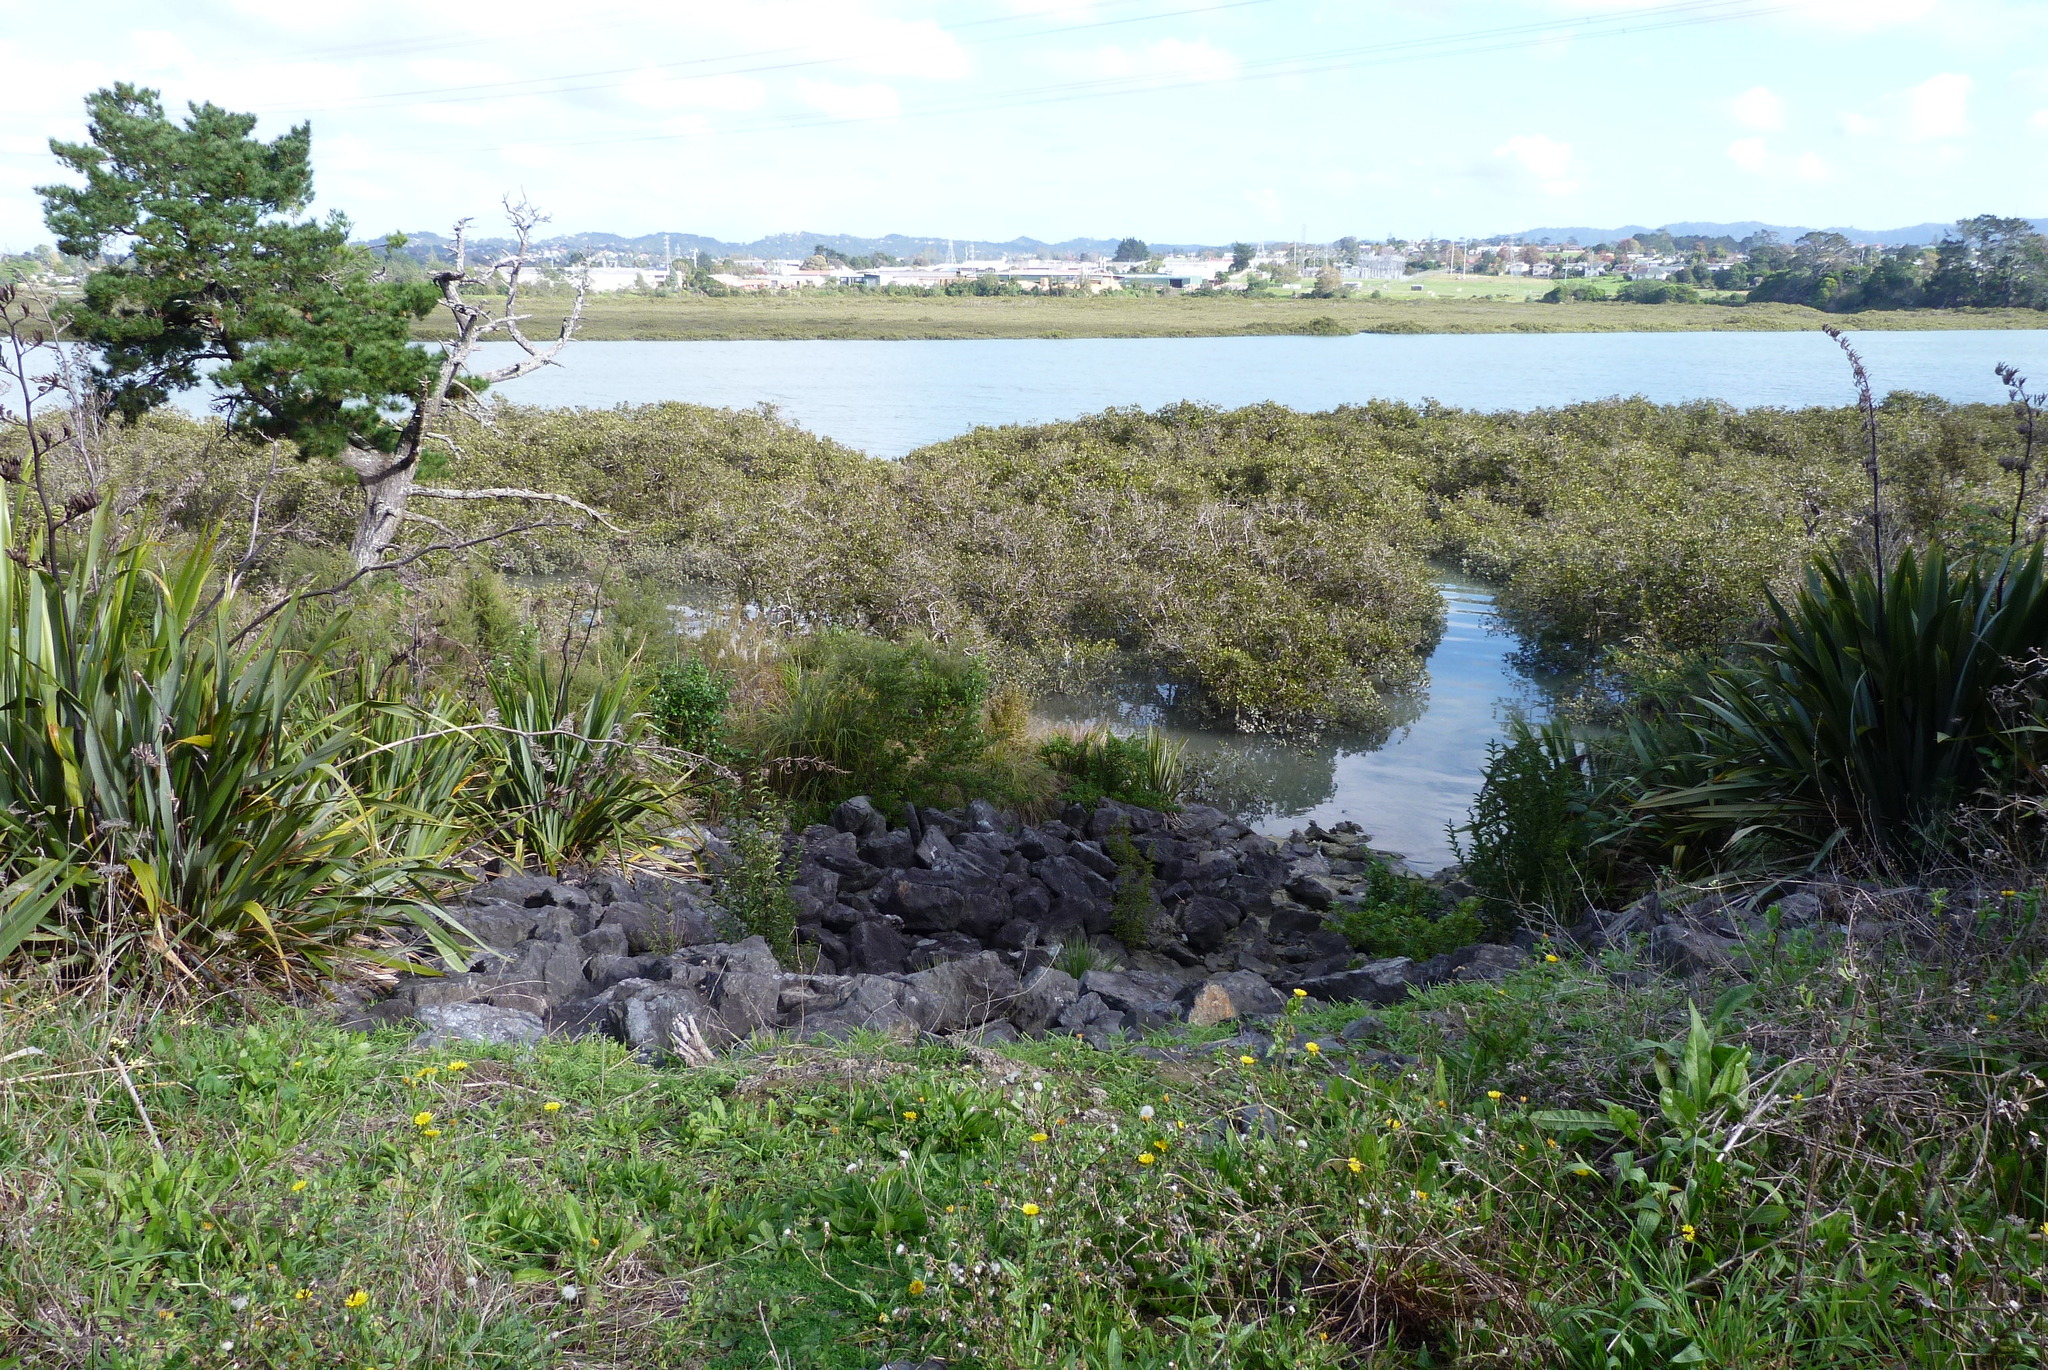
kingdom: Plantae
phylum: Tracheophyta
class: Magnoliopsida
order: Lamiales
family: Acanthaceae
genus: Avicennia
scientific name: Avicennia marina
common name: Gray mangrove
